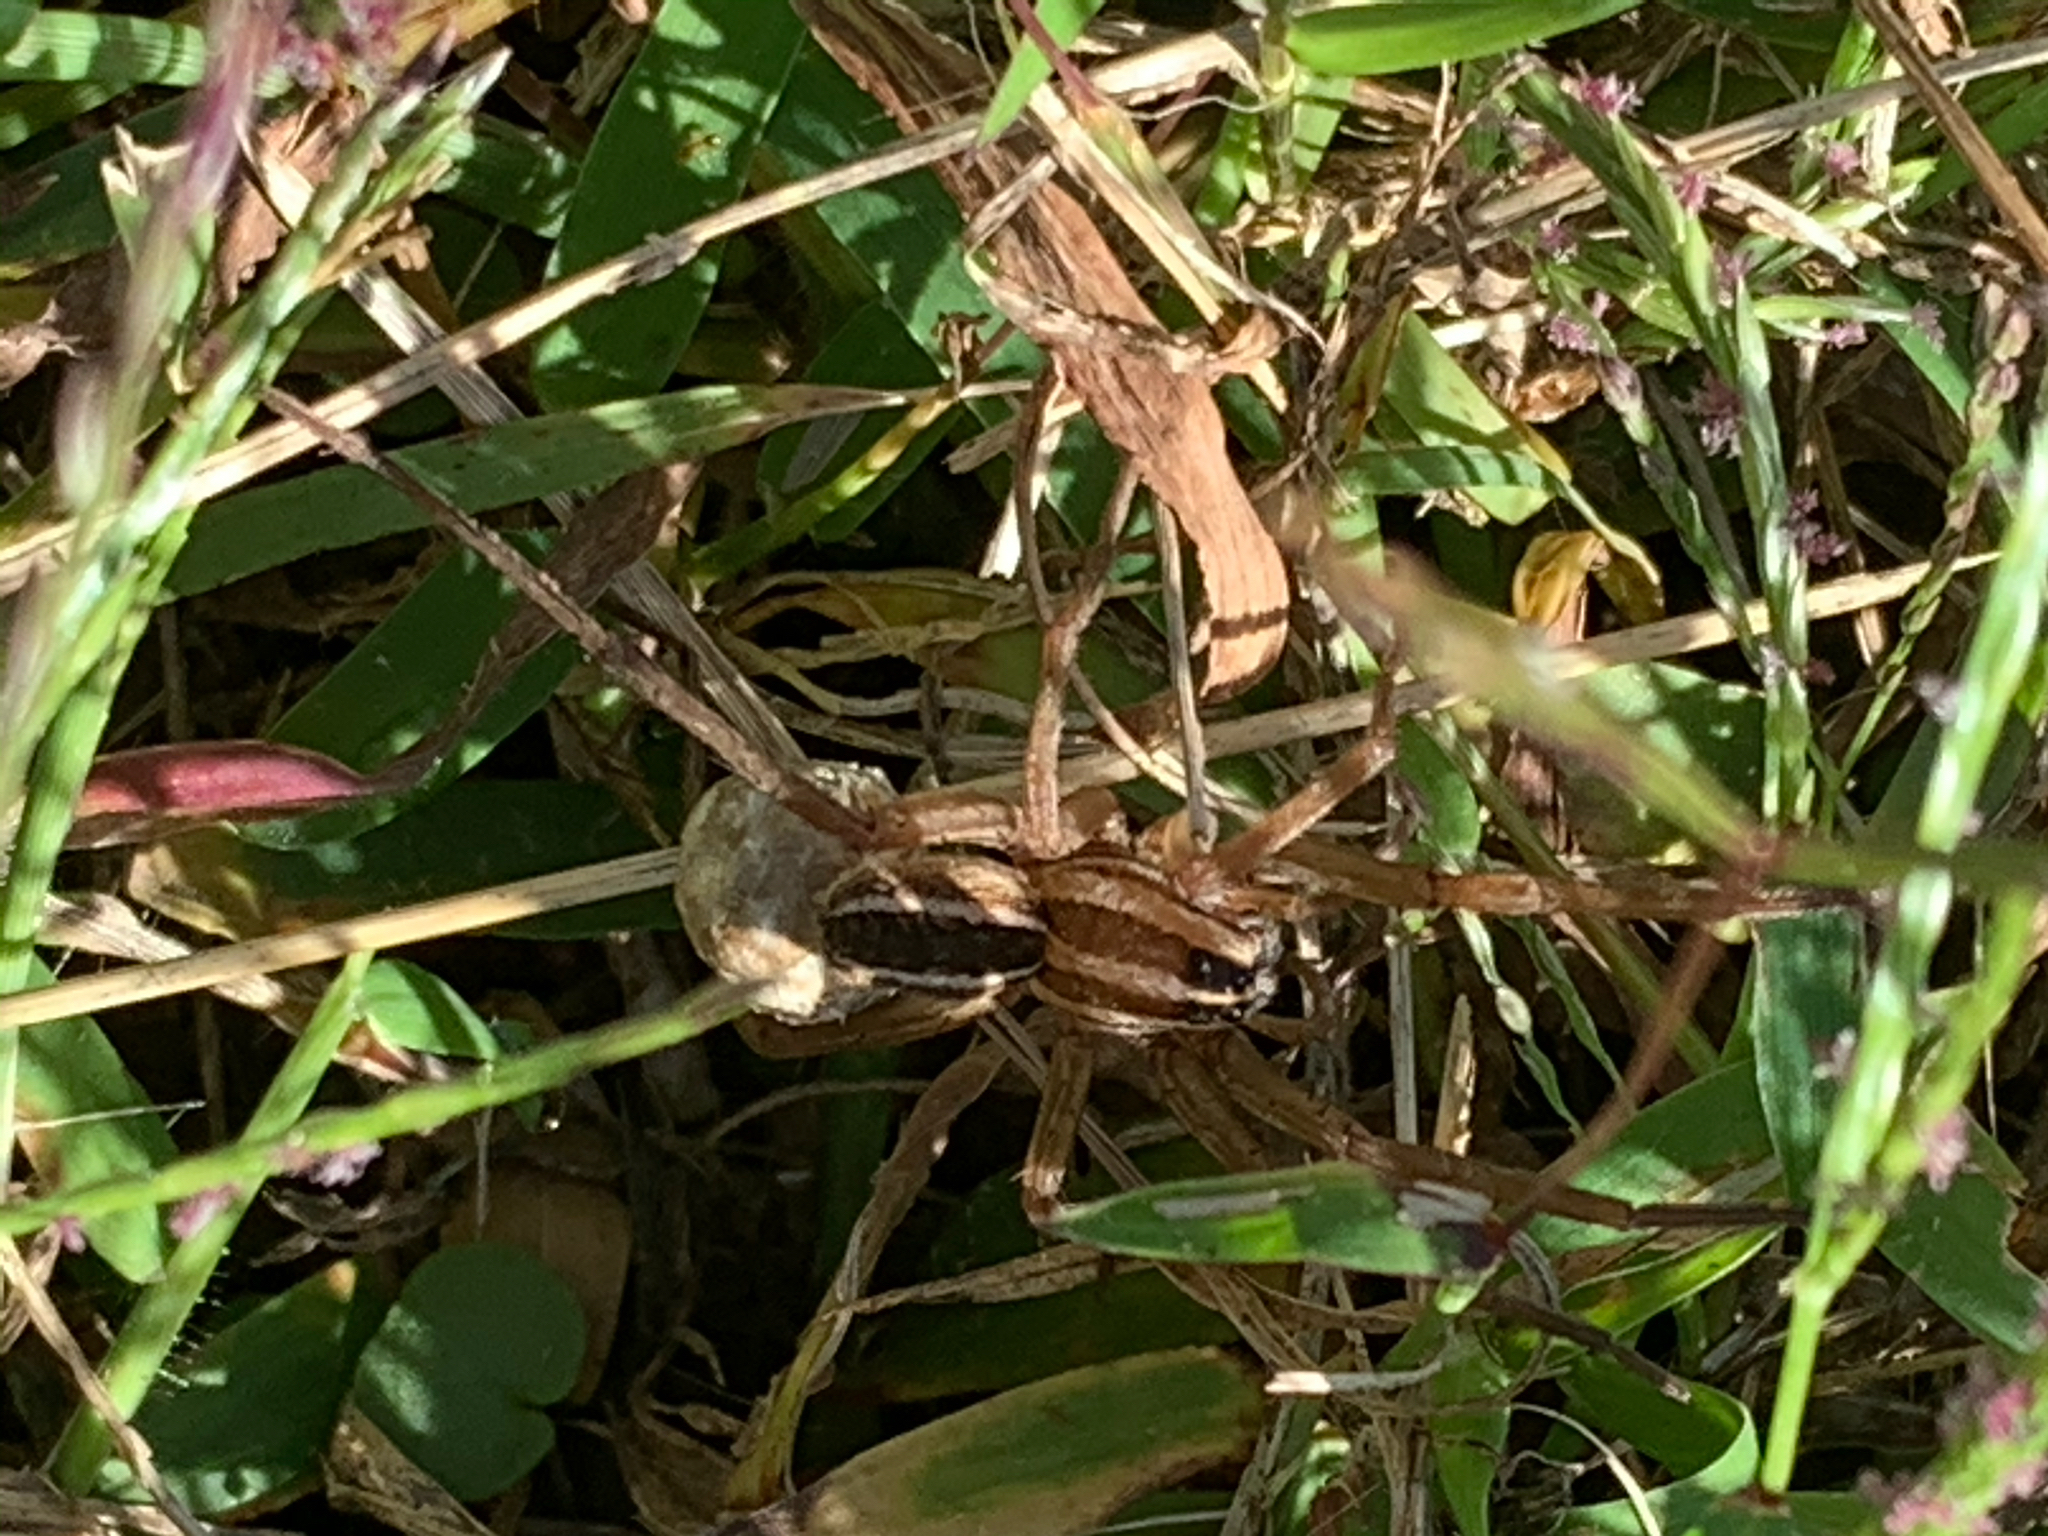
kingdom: Animalia
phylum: Arthropoda
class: Arachnida
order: Araneae
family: Lycosidae
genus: Rabidosa
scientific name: Rabidosa rabida
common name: Rabid wolf spider
